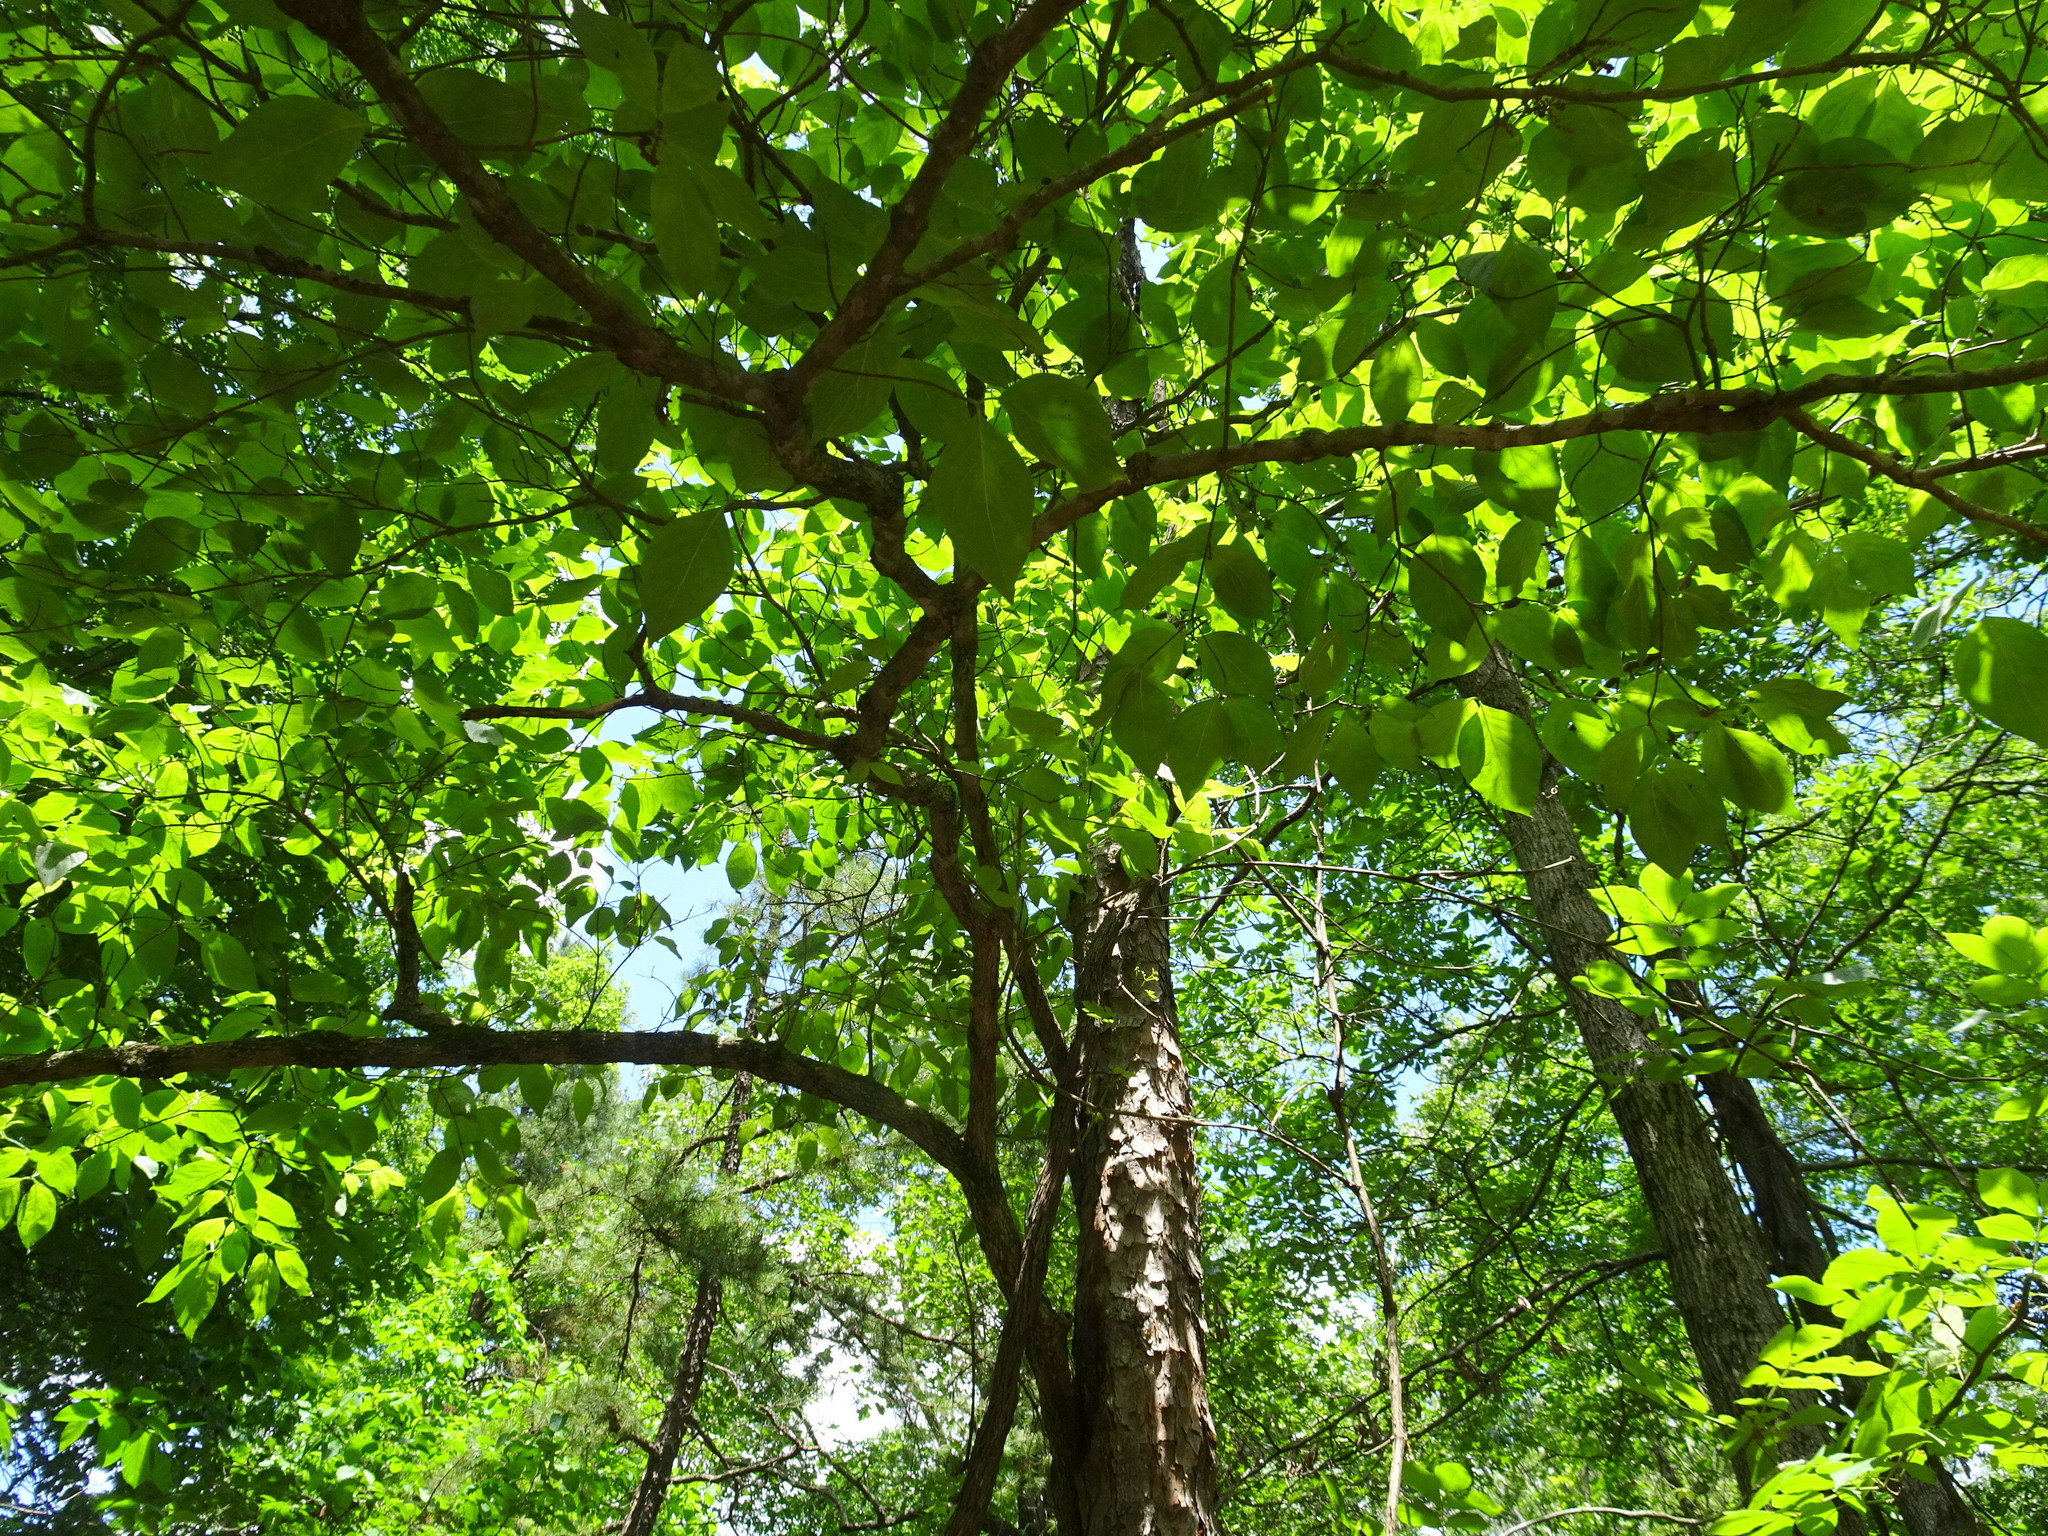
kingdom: Plantae
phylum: Tracheophyta
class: Magnoliopsida
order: Cornales
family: Cornaceae
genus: Cornus
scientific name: Cornus florida
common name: Flowering dogwood
